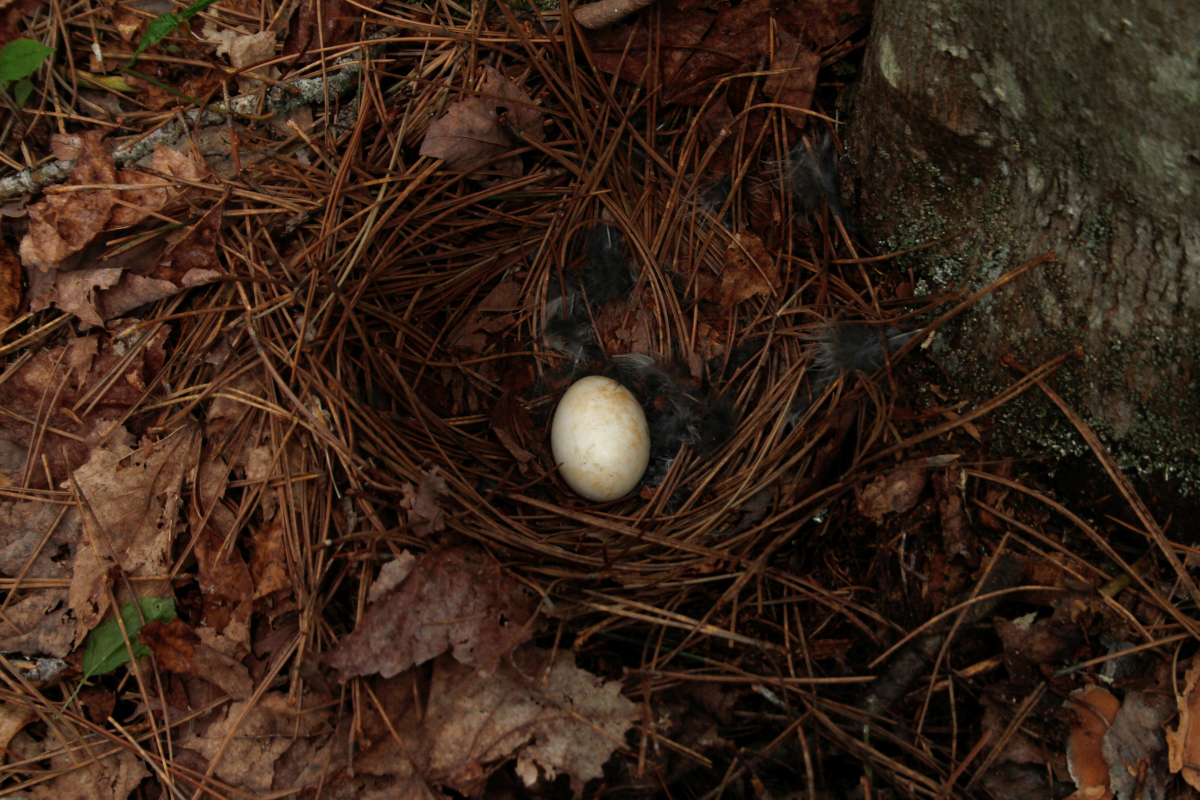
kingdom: Animalia
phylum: Chordata
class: Aves
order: Galliformes
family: Phasianidae
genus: Bonasa
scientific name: Bonasa umbellus
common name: Ruffed grouse
